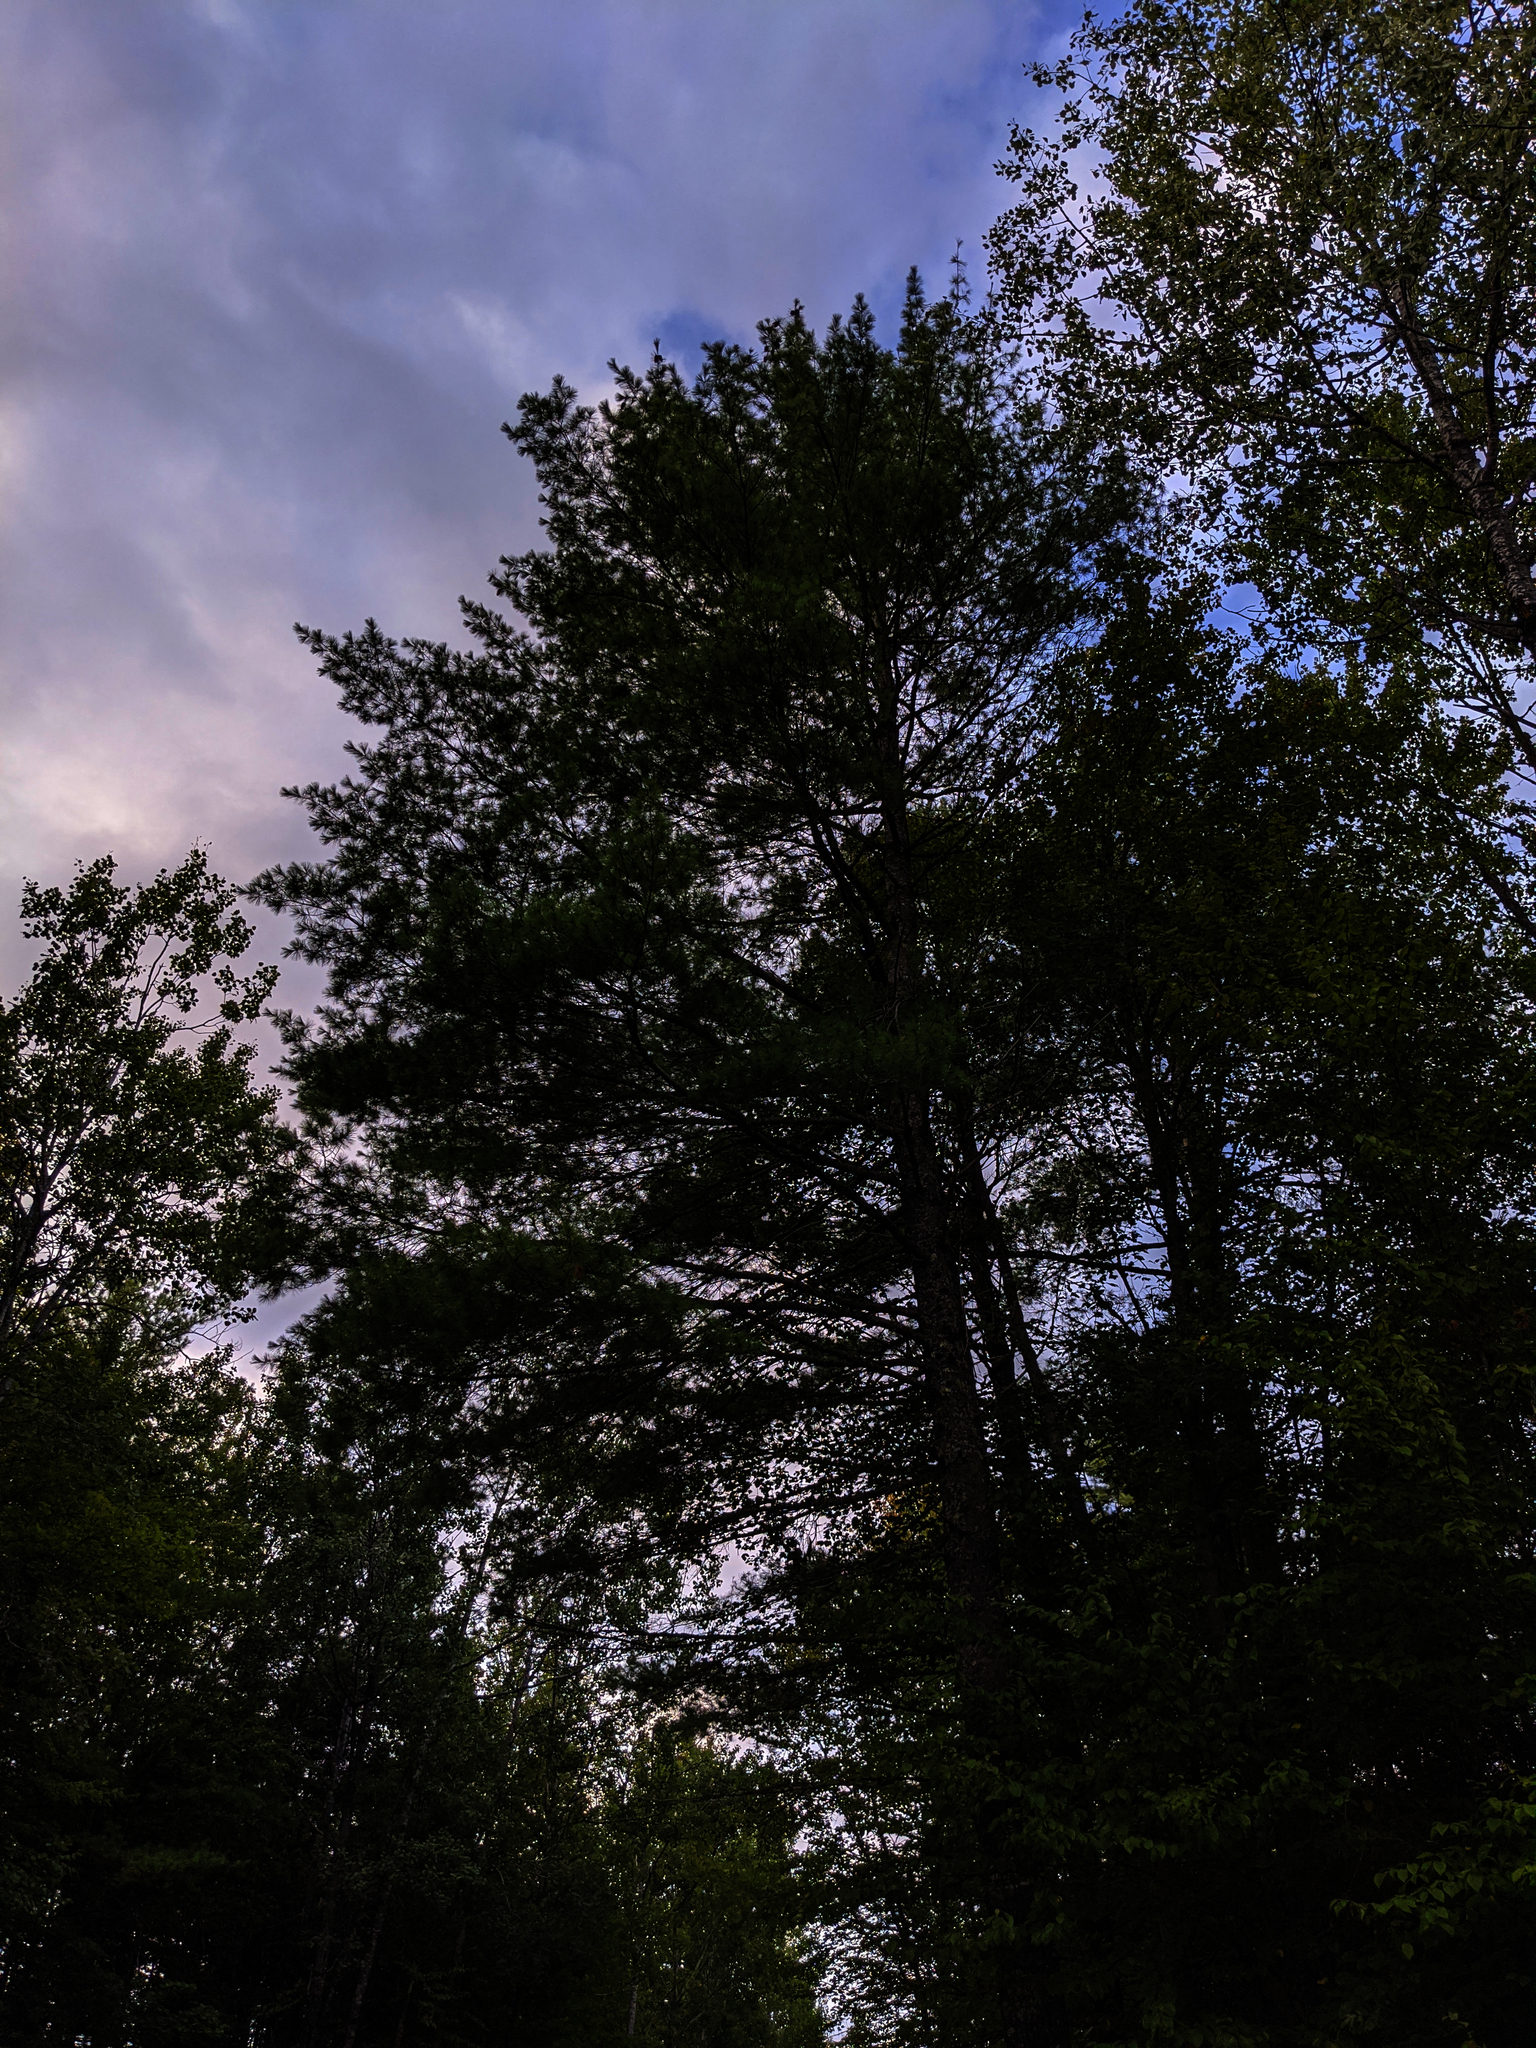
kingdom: Plantae
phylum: Tracheophyta
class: Pinopsida
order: Pinales
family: Pinaceae
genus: Pinus
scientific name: Pinus strobus
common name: Weymouth pine
